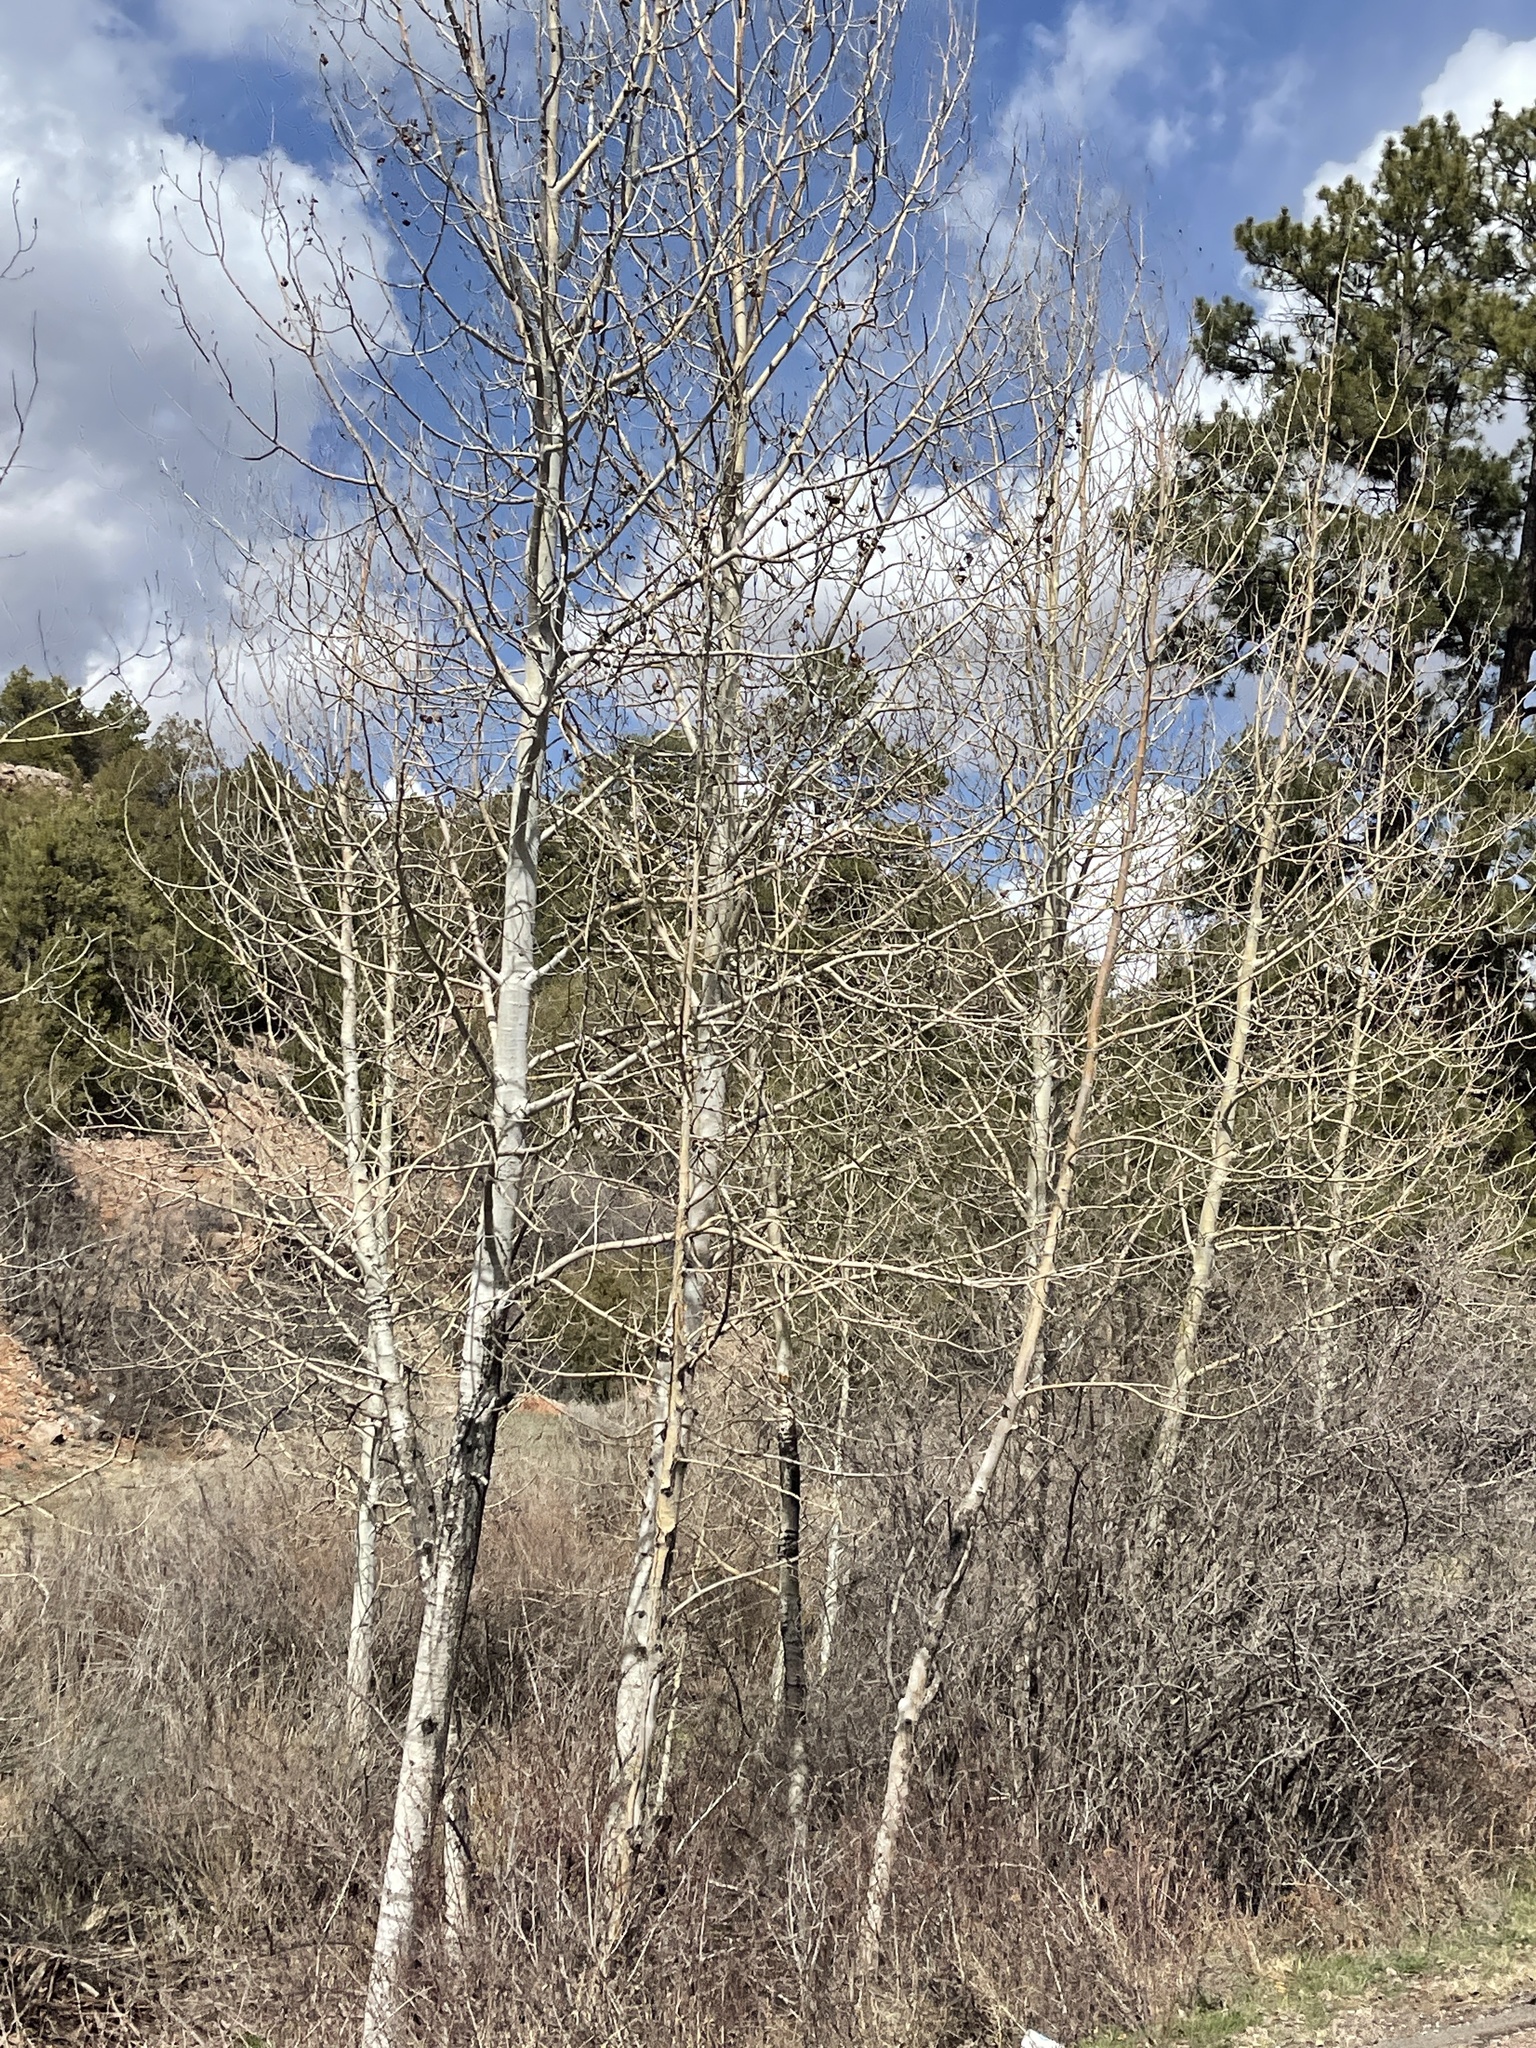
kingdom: Plantae
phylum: Tracheophyta
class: Magnoliopsida
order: Malpighiales
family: Salicaceae
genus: Populus
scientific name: Populus tremuloides
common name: Quaking aspen
